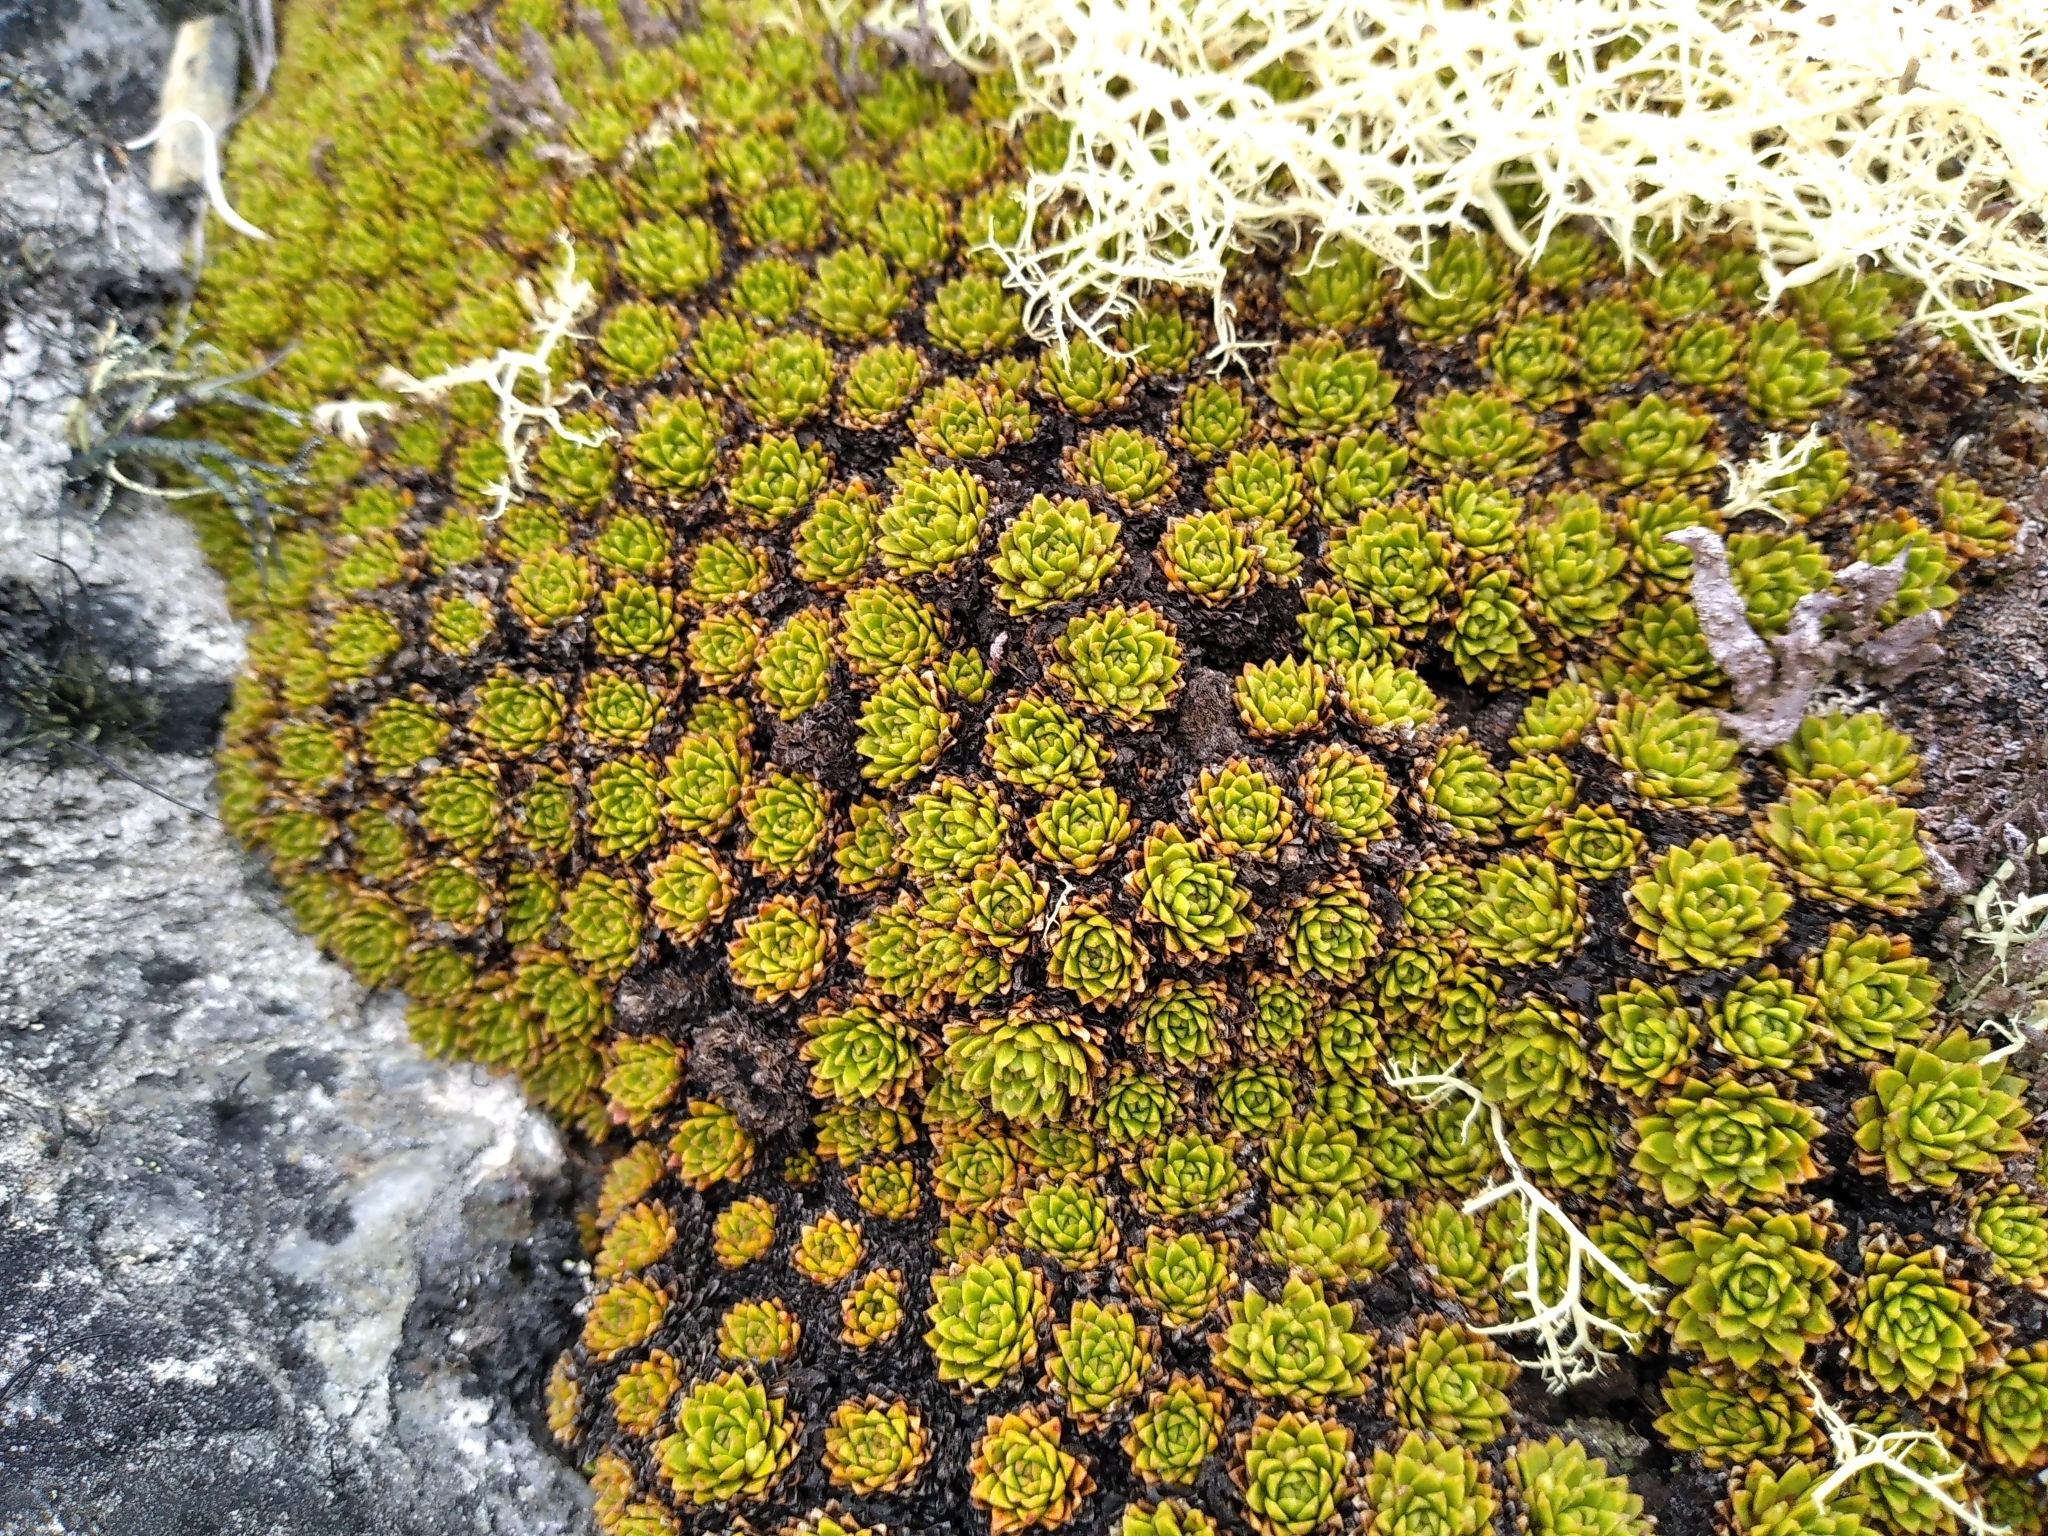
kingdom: Plantae
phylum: Tracheophyta
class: Magnoliopsida
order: Caryophyllales
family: Montiaceae
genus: Hectorella
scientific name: Hectorella caespitosa
